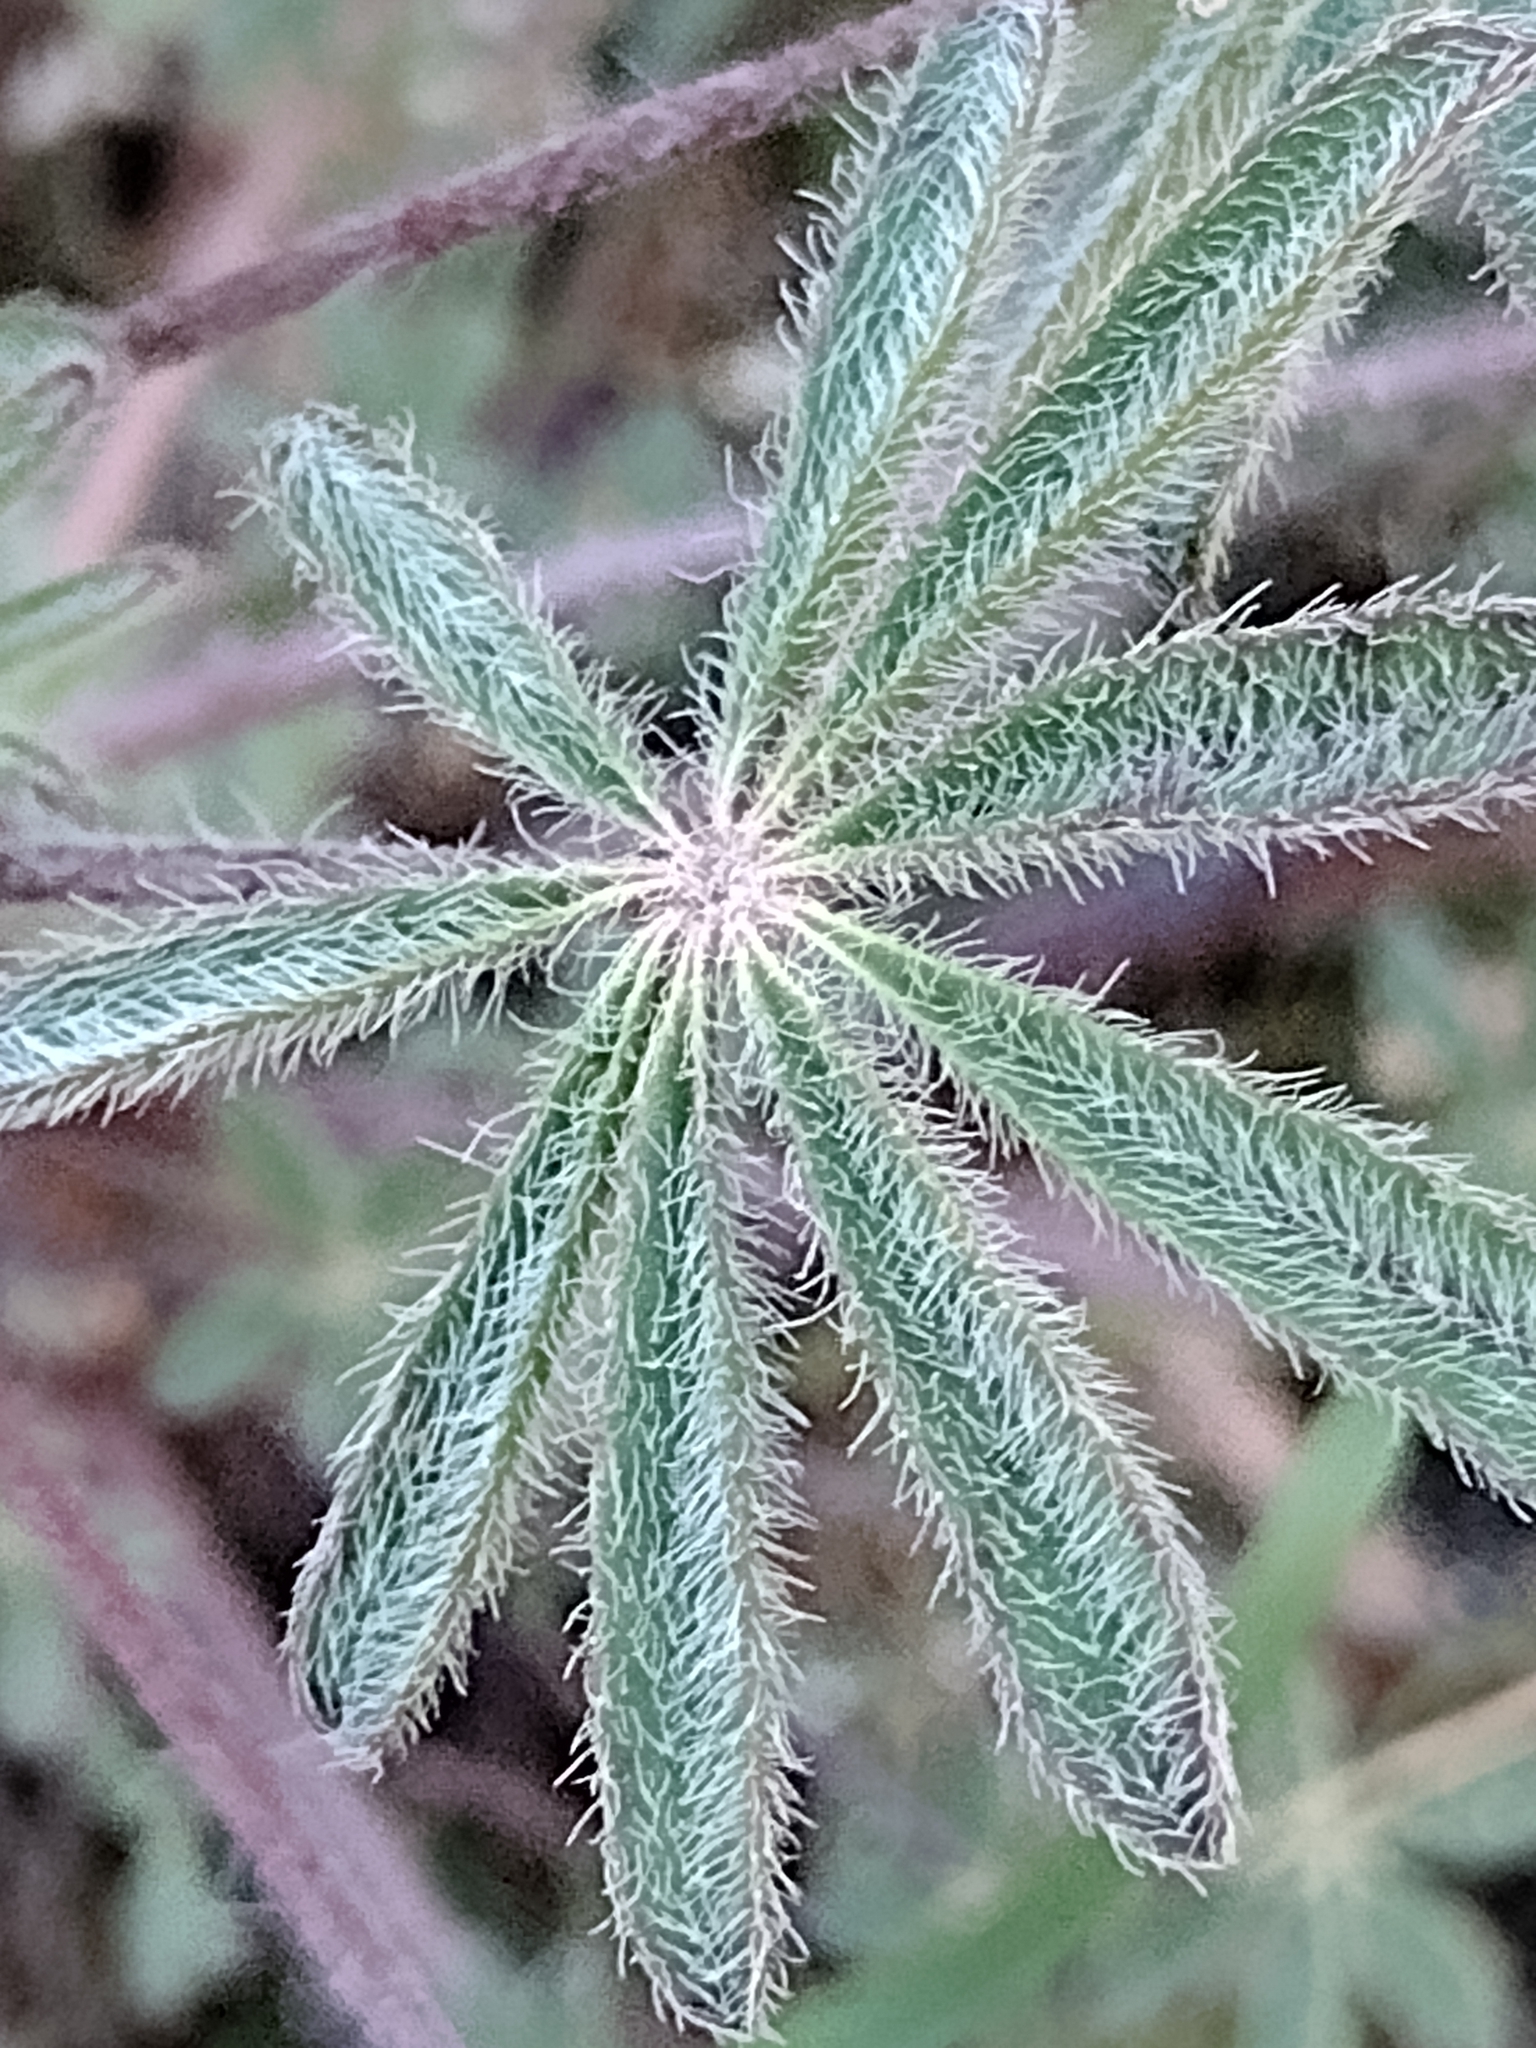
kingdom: Plantae
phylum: Tracheophyta
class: Magnoliopsida
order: Fabales
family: Fabaceae
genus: Lupinus
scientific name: Lupinus sparsiflorus
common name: Coulter's lupine
